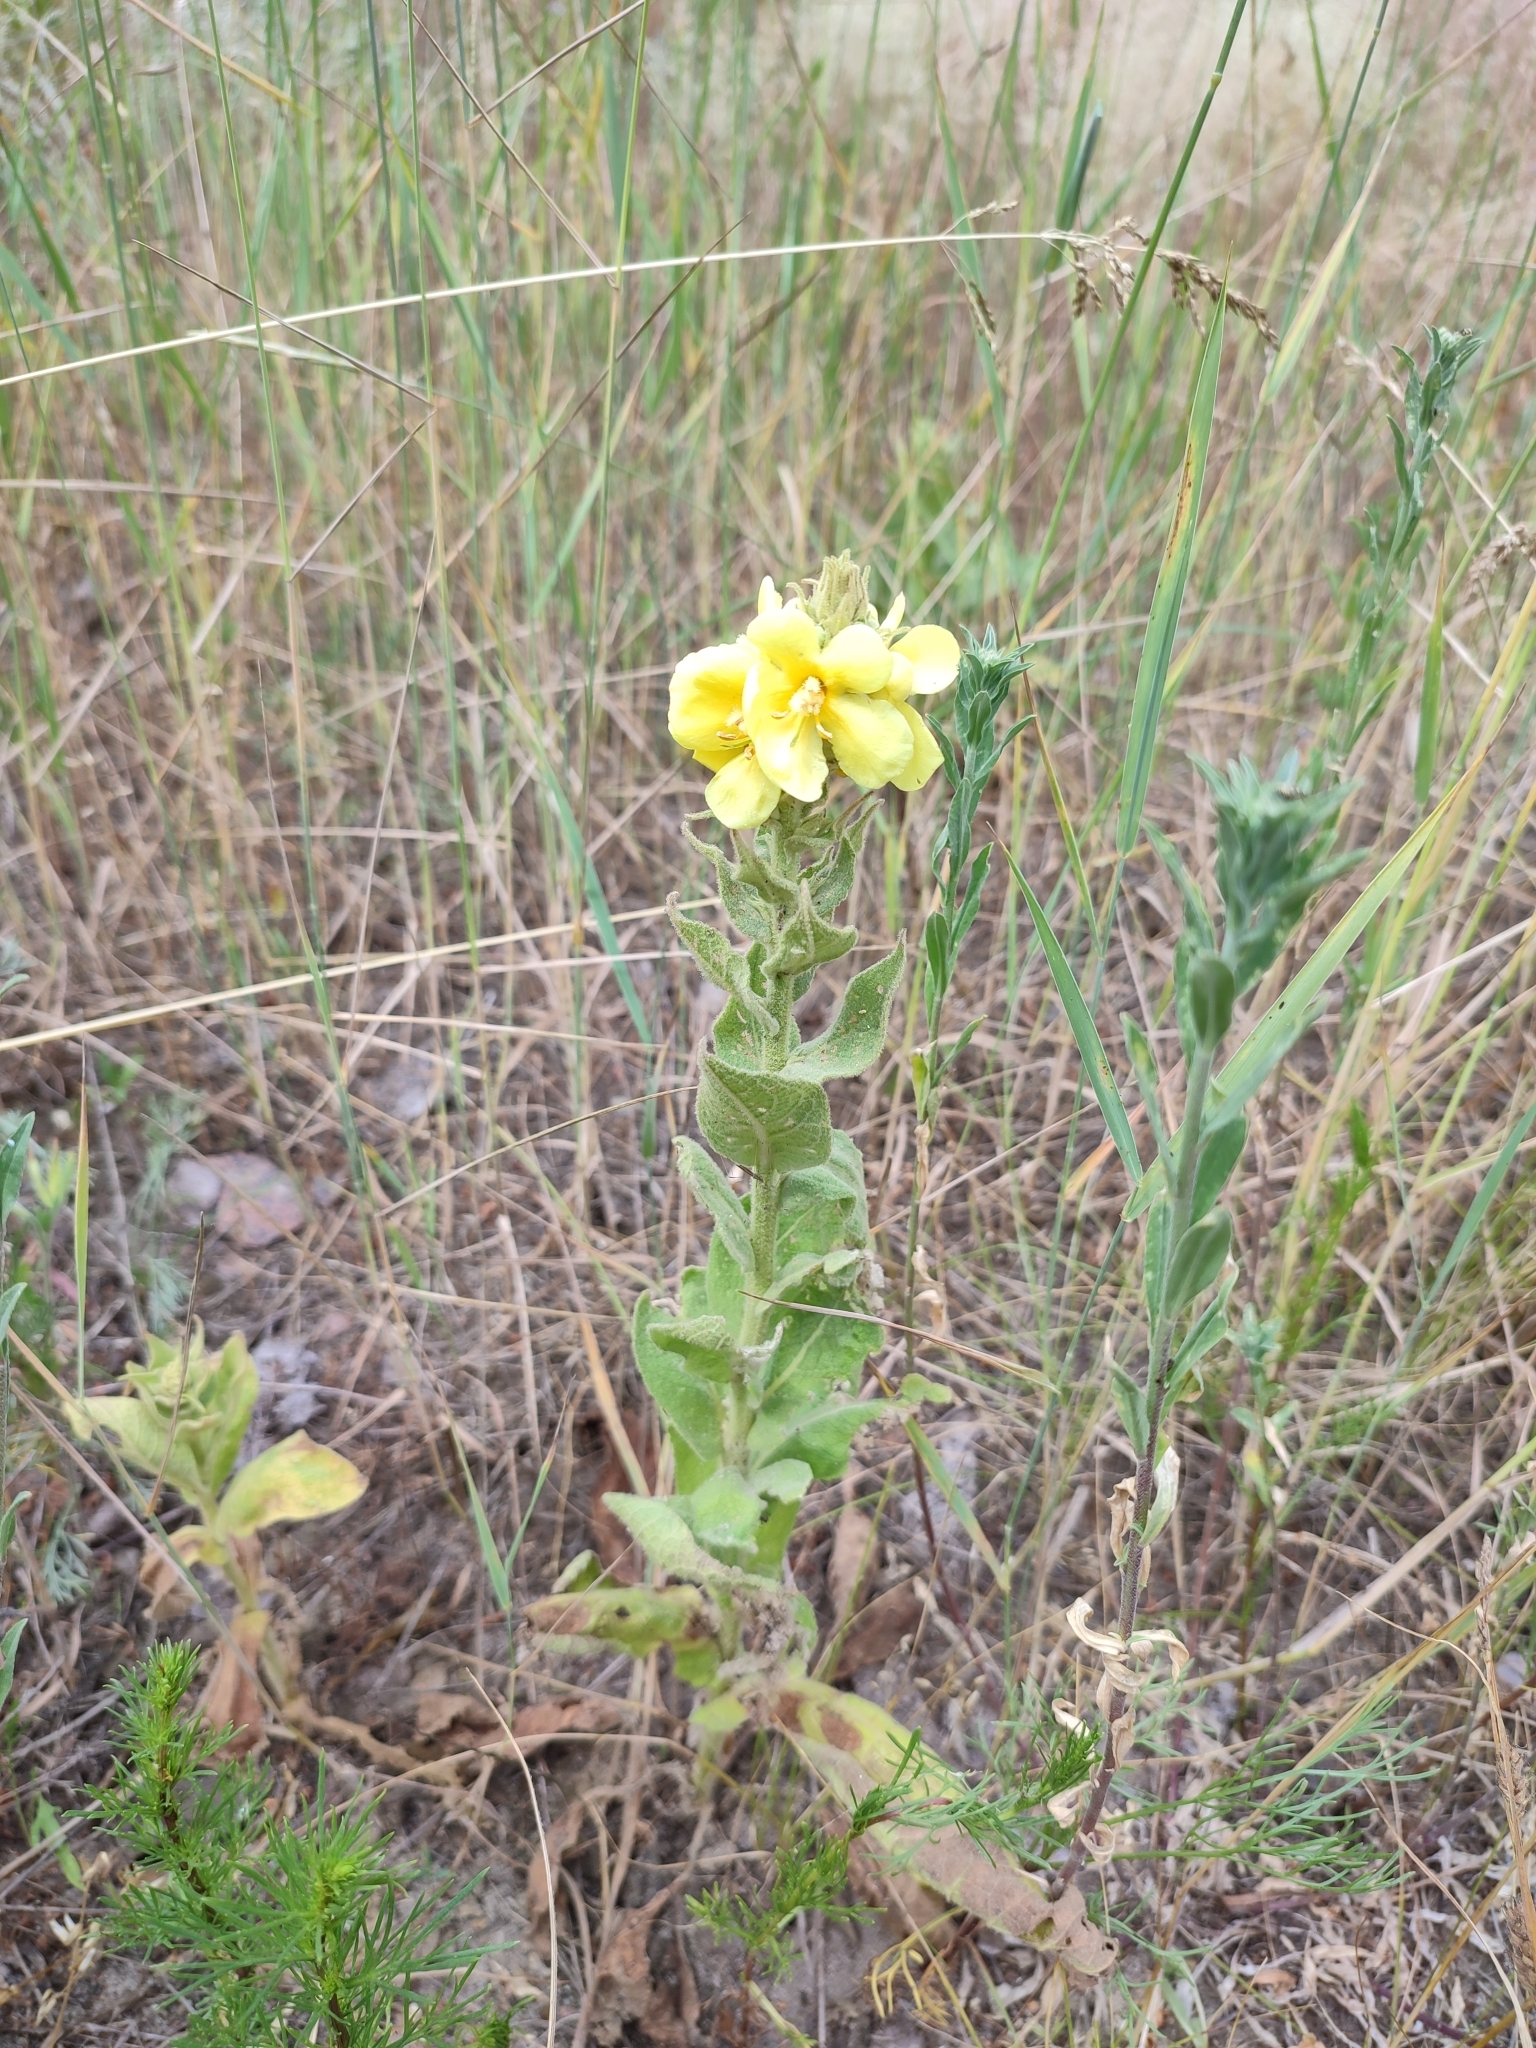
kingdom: Plantae
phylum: Tracheophyta
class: Magnoliopsida
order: Lamiales
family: Scrophulariaceae
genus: Verbascum
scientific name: Verbascum phlomoides
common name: Orange mullein
